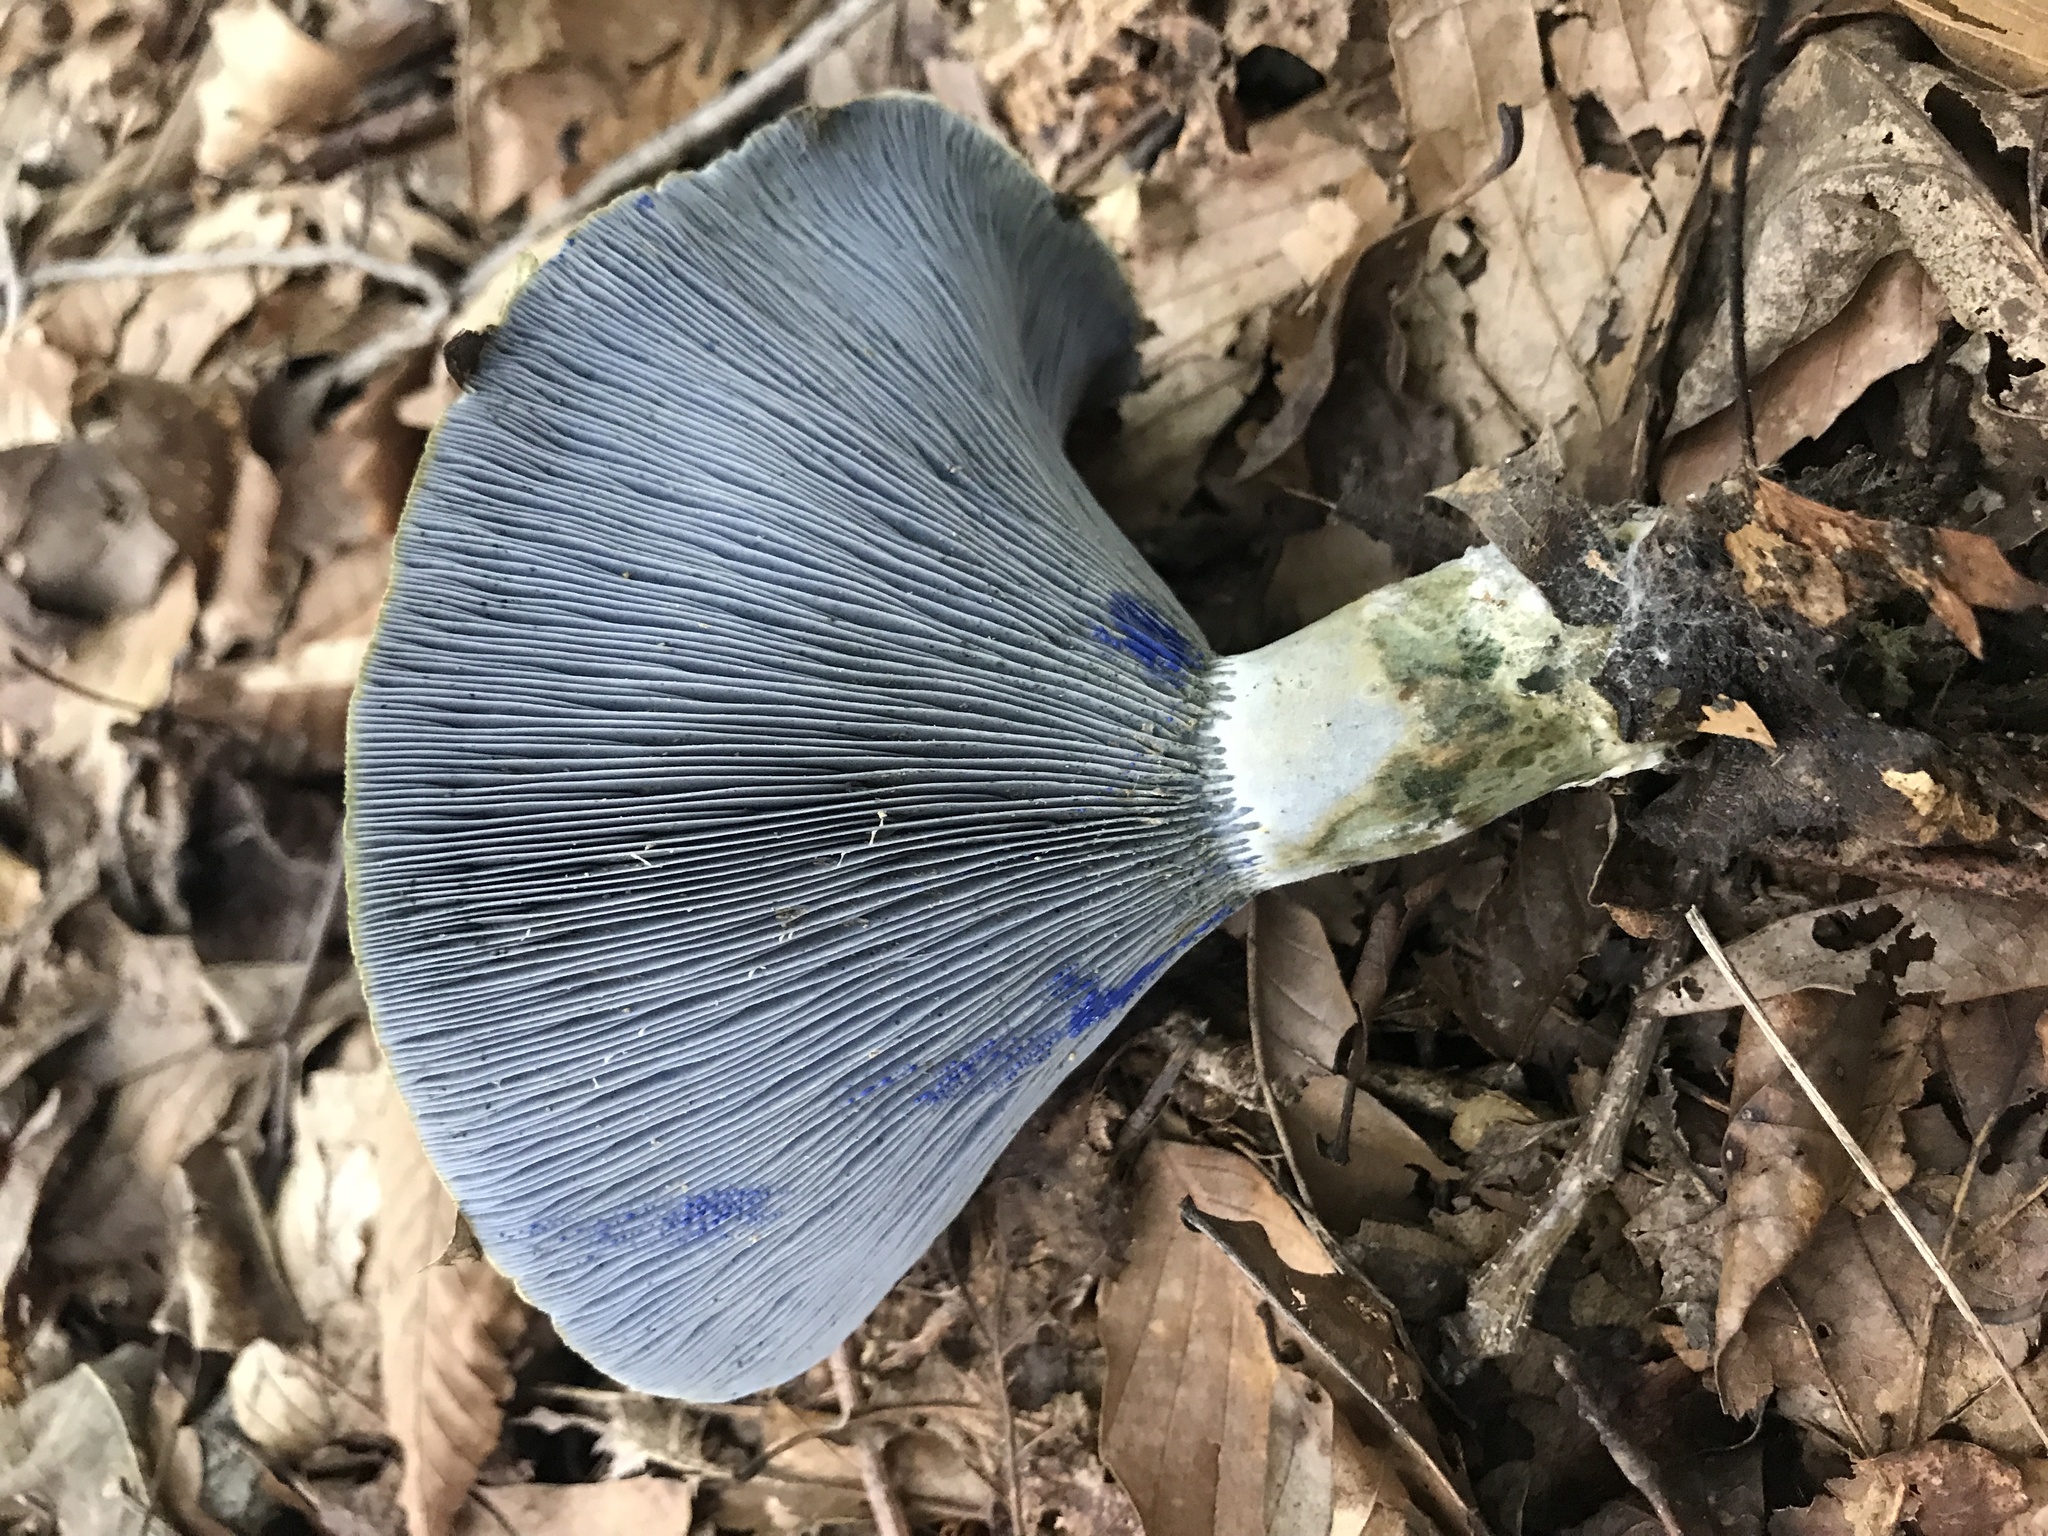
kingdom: Fungi
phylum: Basidiomycota
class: Agaricomycetes
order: Russulales
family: Russulaceae
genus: Lactarius
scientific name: Lactarius indigo
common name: Indigo milk cap
